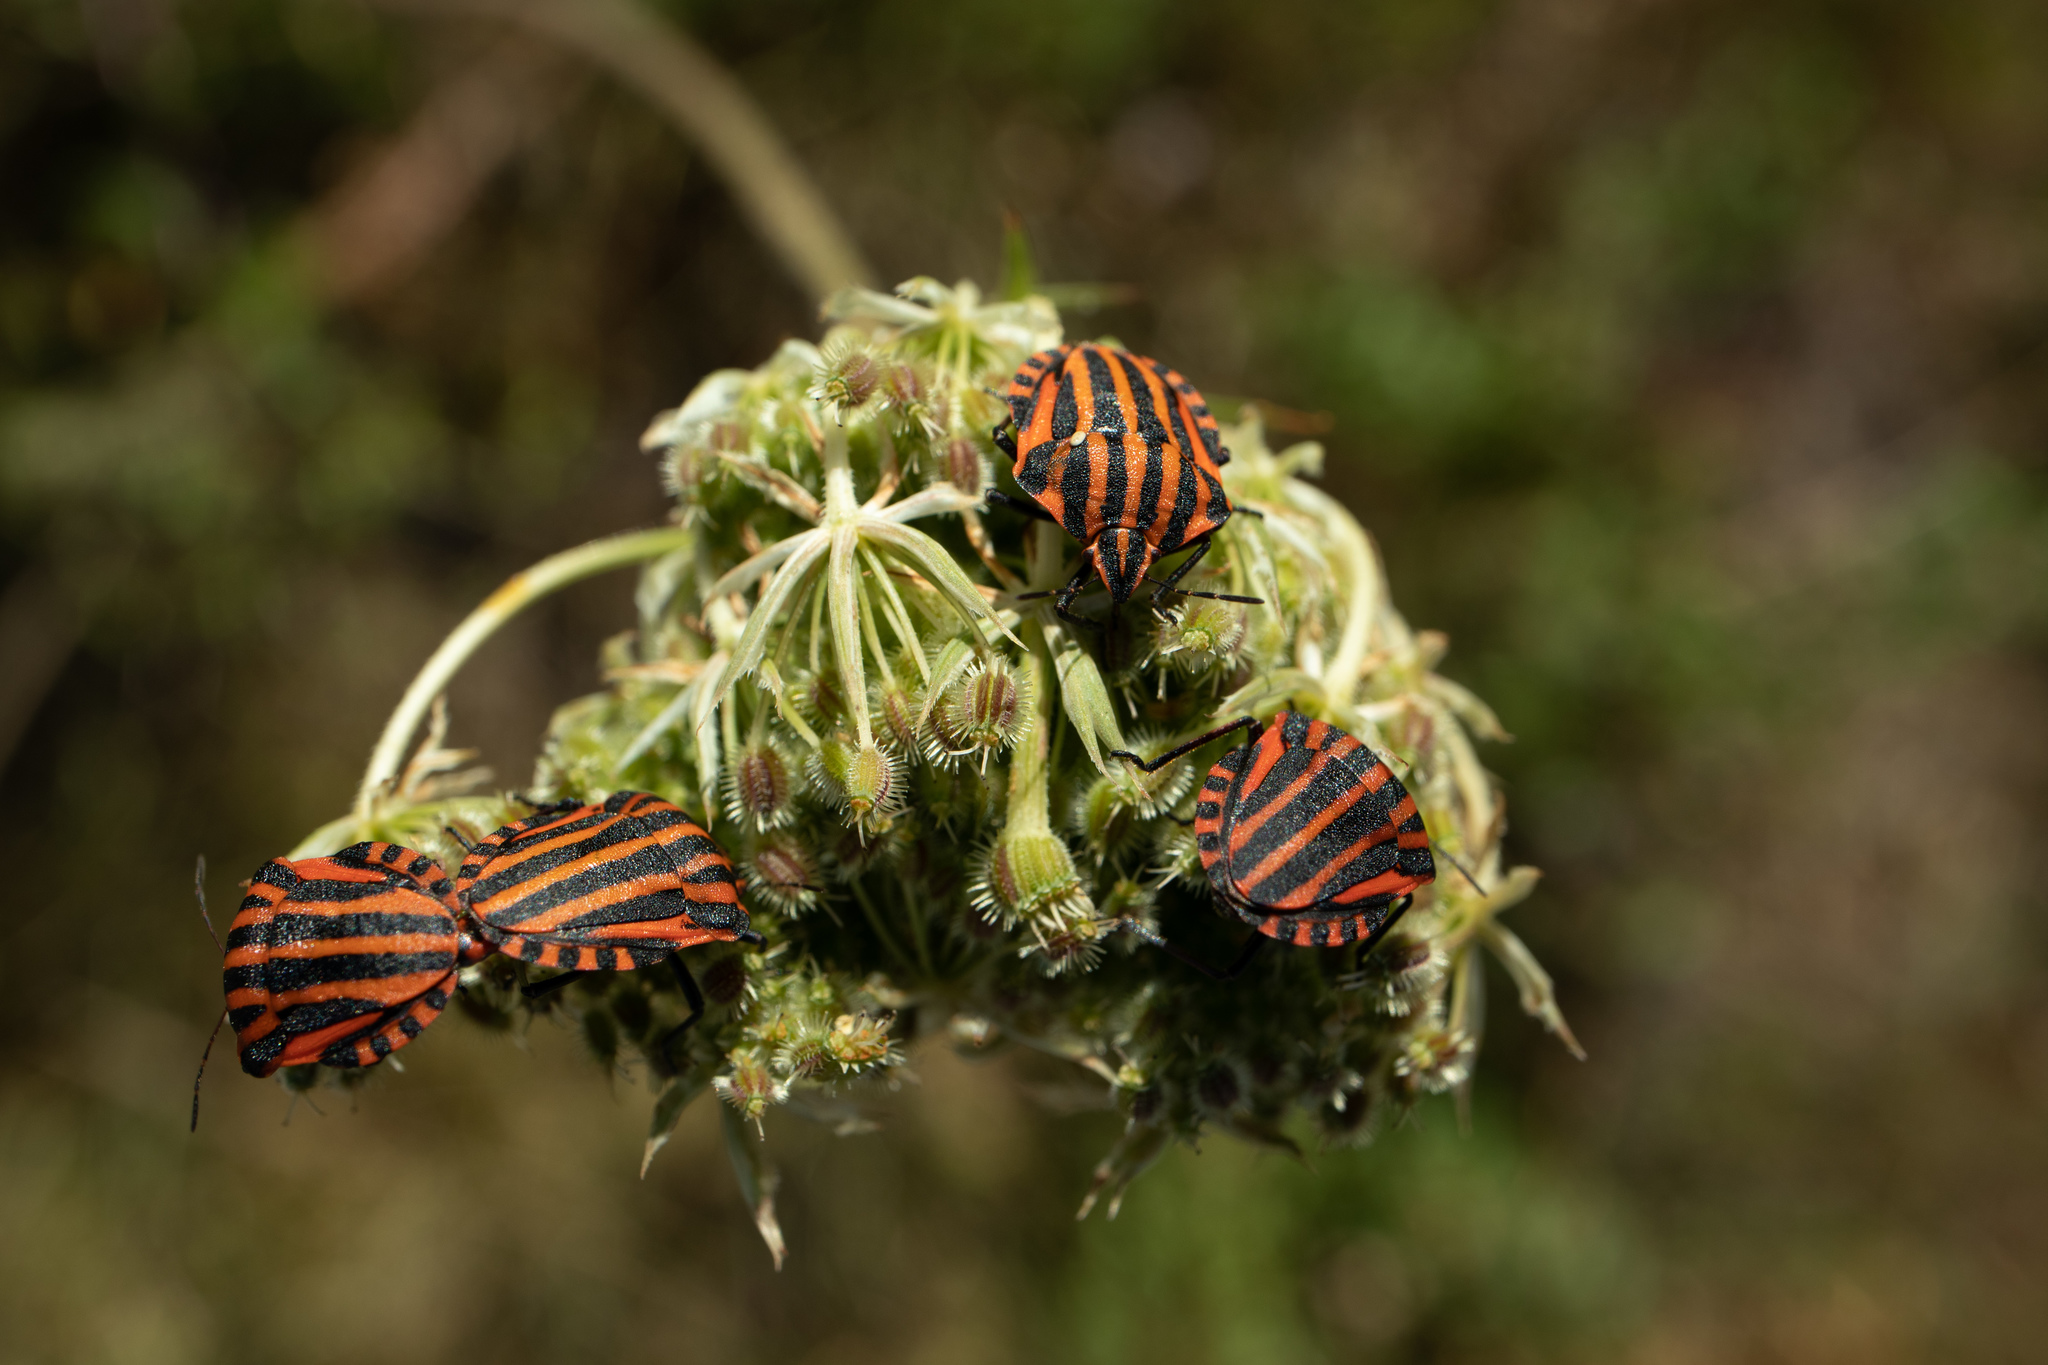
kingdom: Animalia
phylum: Arthropoda
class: Insecta
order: Hemiptera
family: Pentatomidae
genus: Graphosoma
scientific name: Graphosoma italicum
